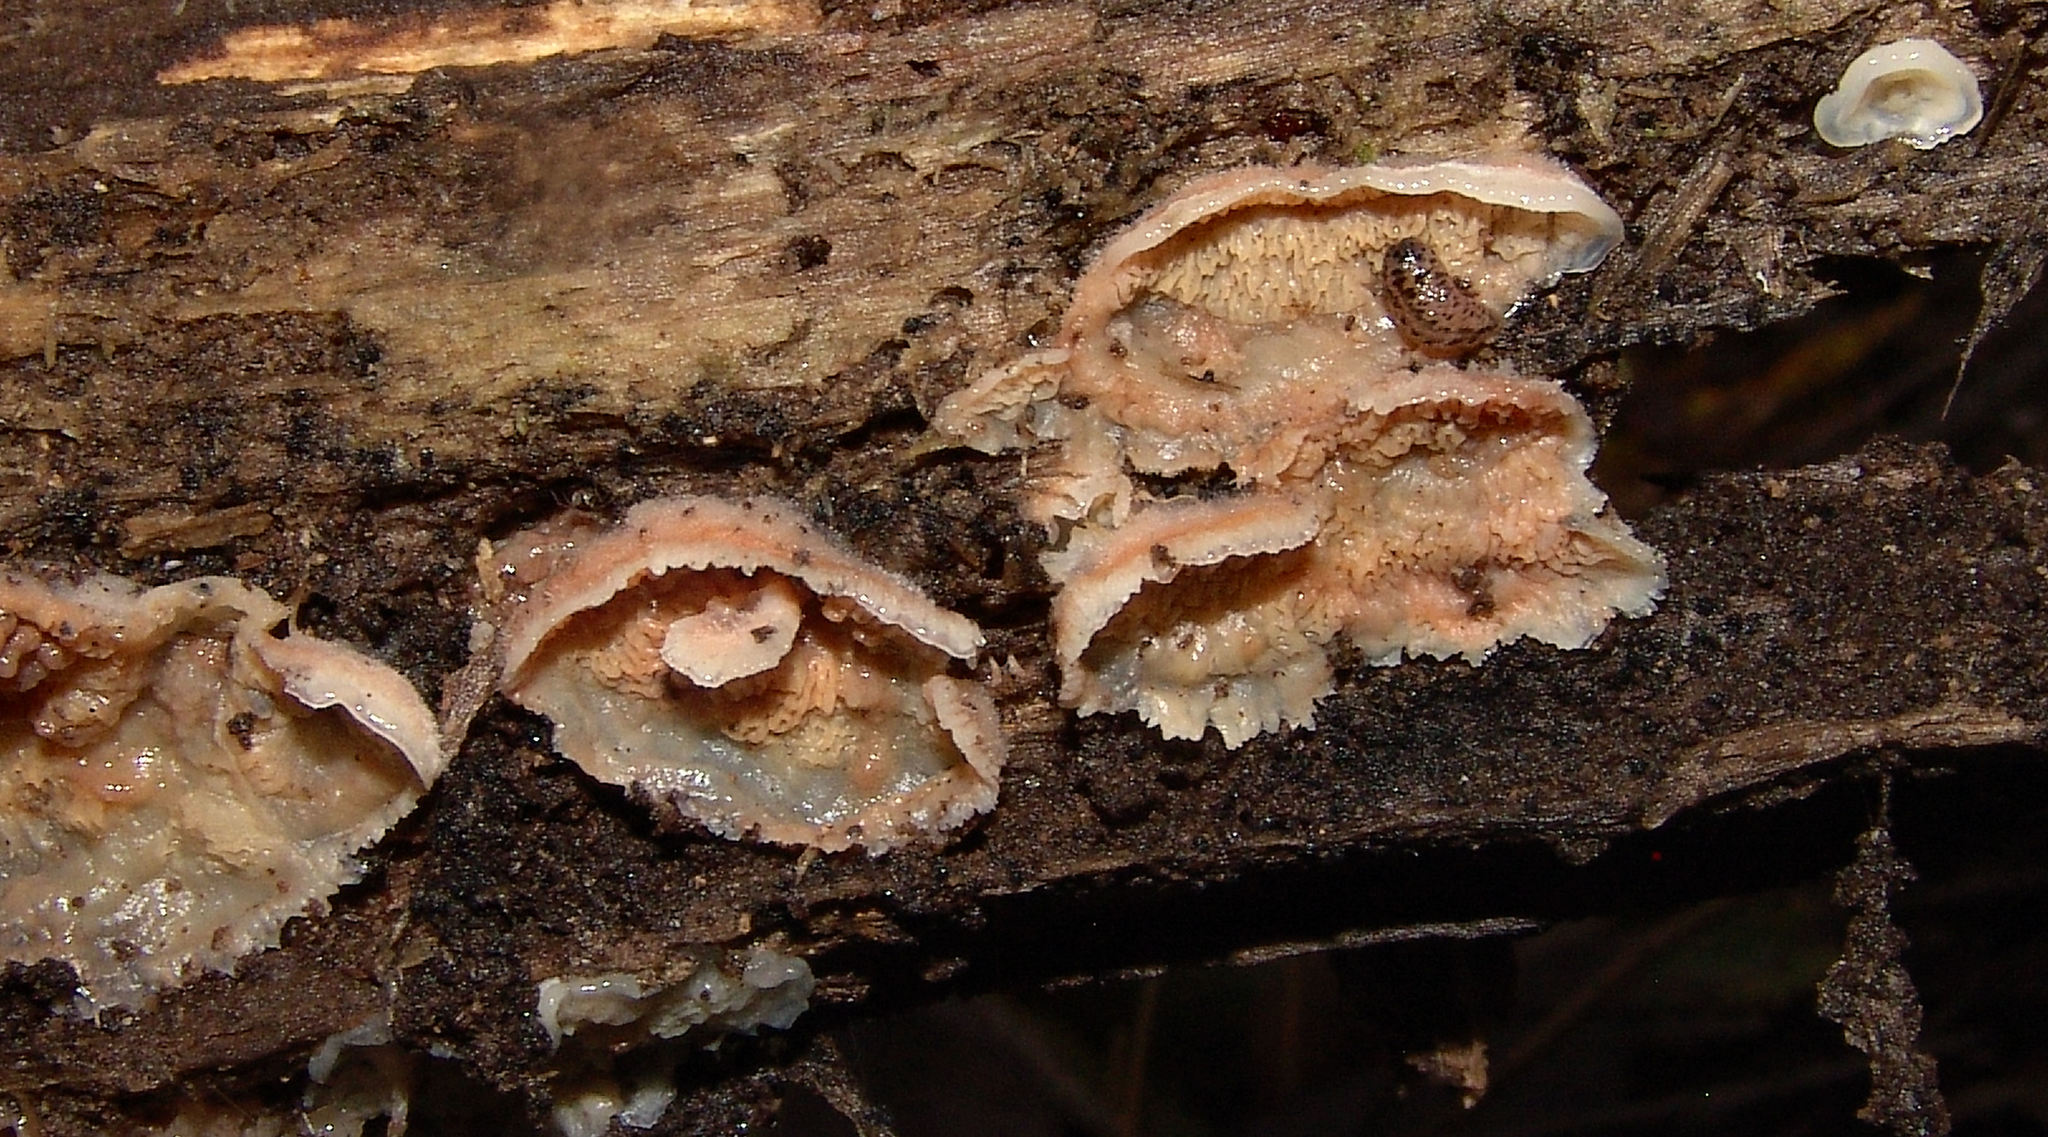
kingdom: Fungi
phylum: Basidiomycota
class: Agaricomycetes
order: Polyporales
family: Meruliaceae
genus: Phlebia
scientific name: Phlebia tremellosa
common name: Jelly rot
